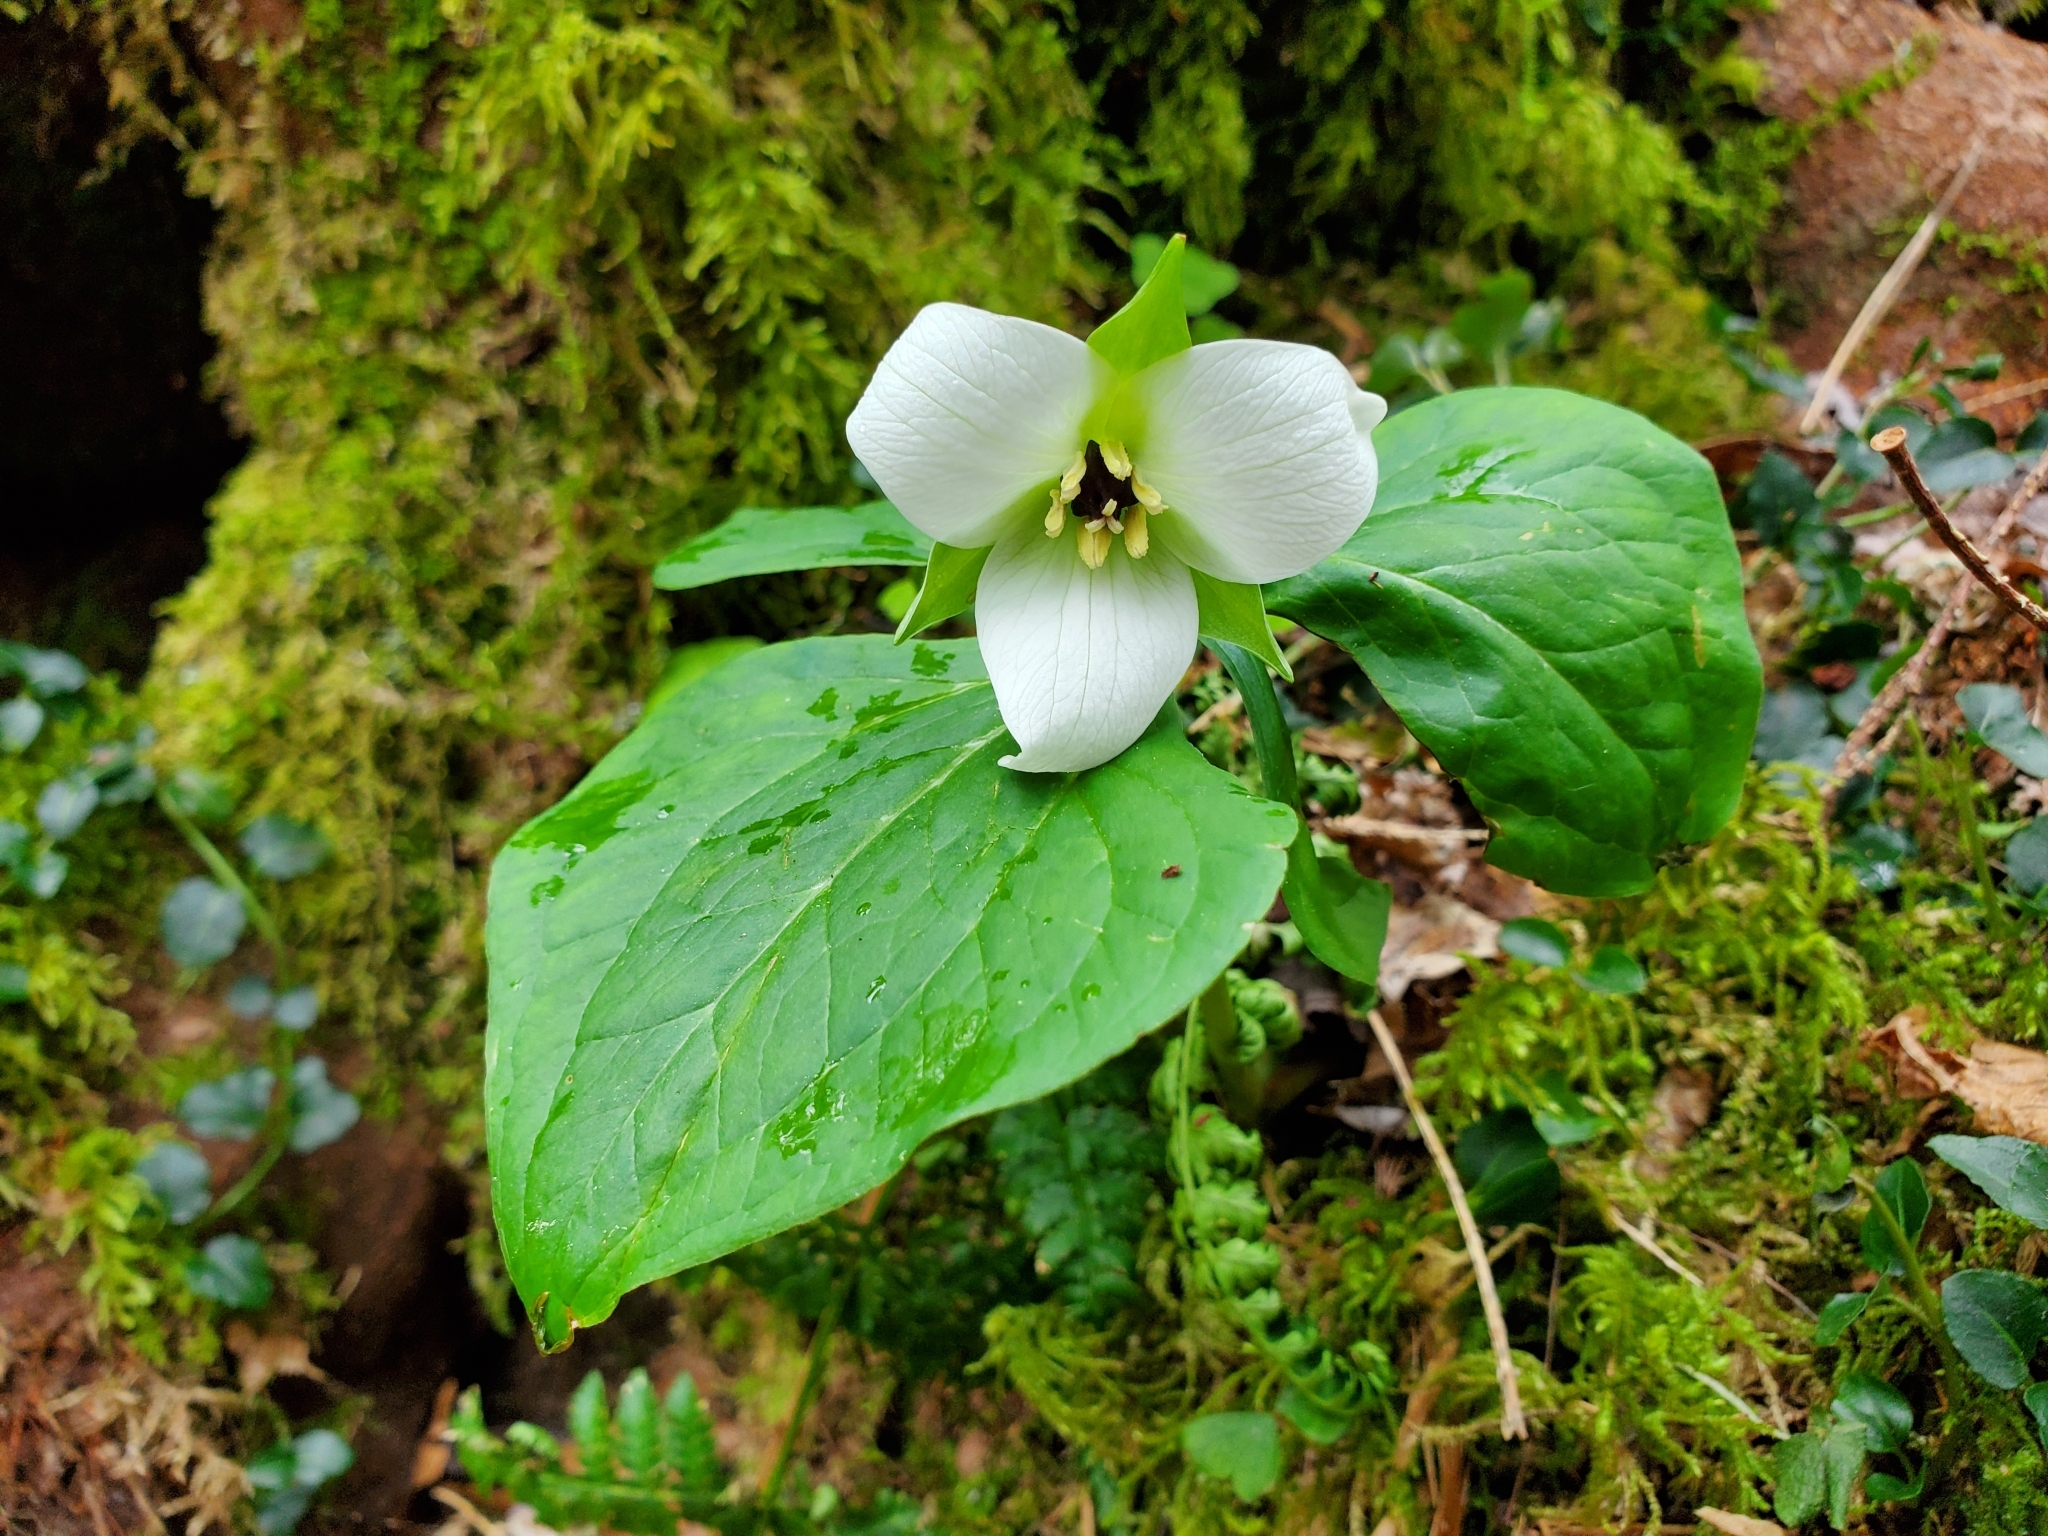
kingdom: Plantae
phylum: Tracheophyta
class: Liliopsida
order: Liliales
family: Melanthiaceae
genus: Trillium
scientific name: Trillium erectum
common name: Purple trillium
